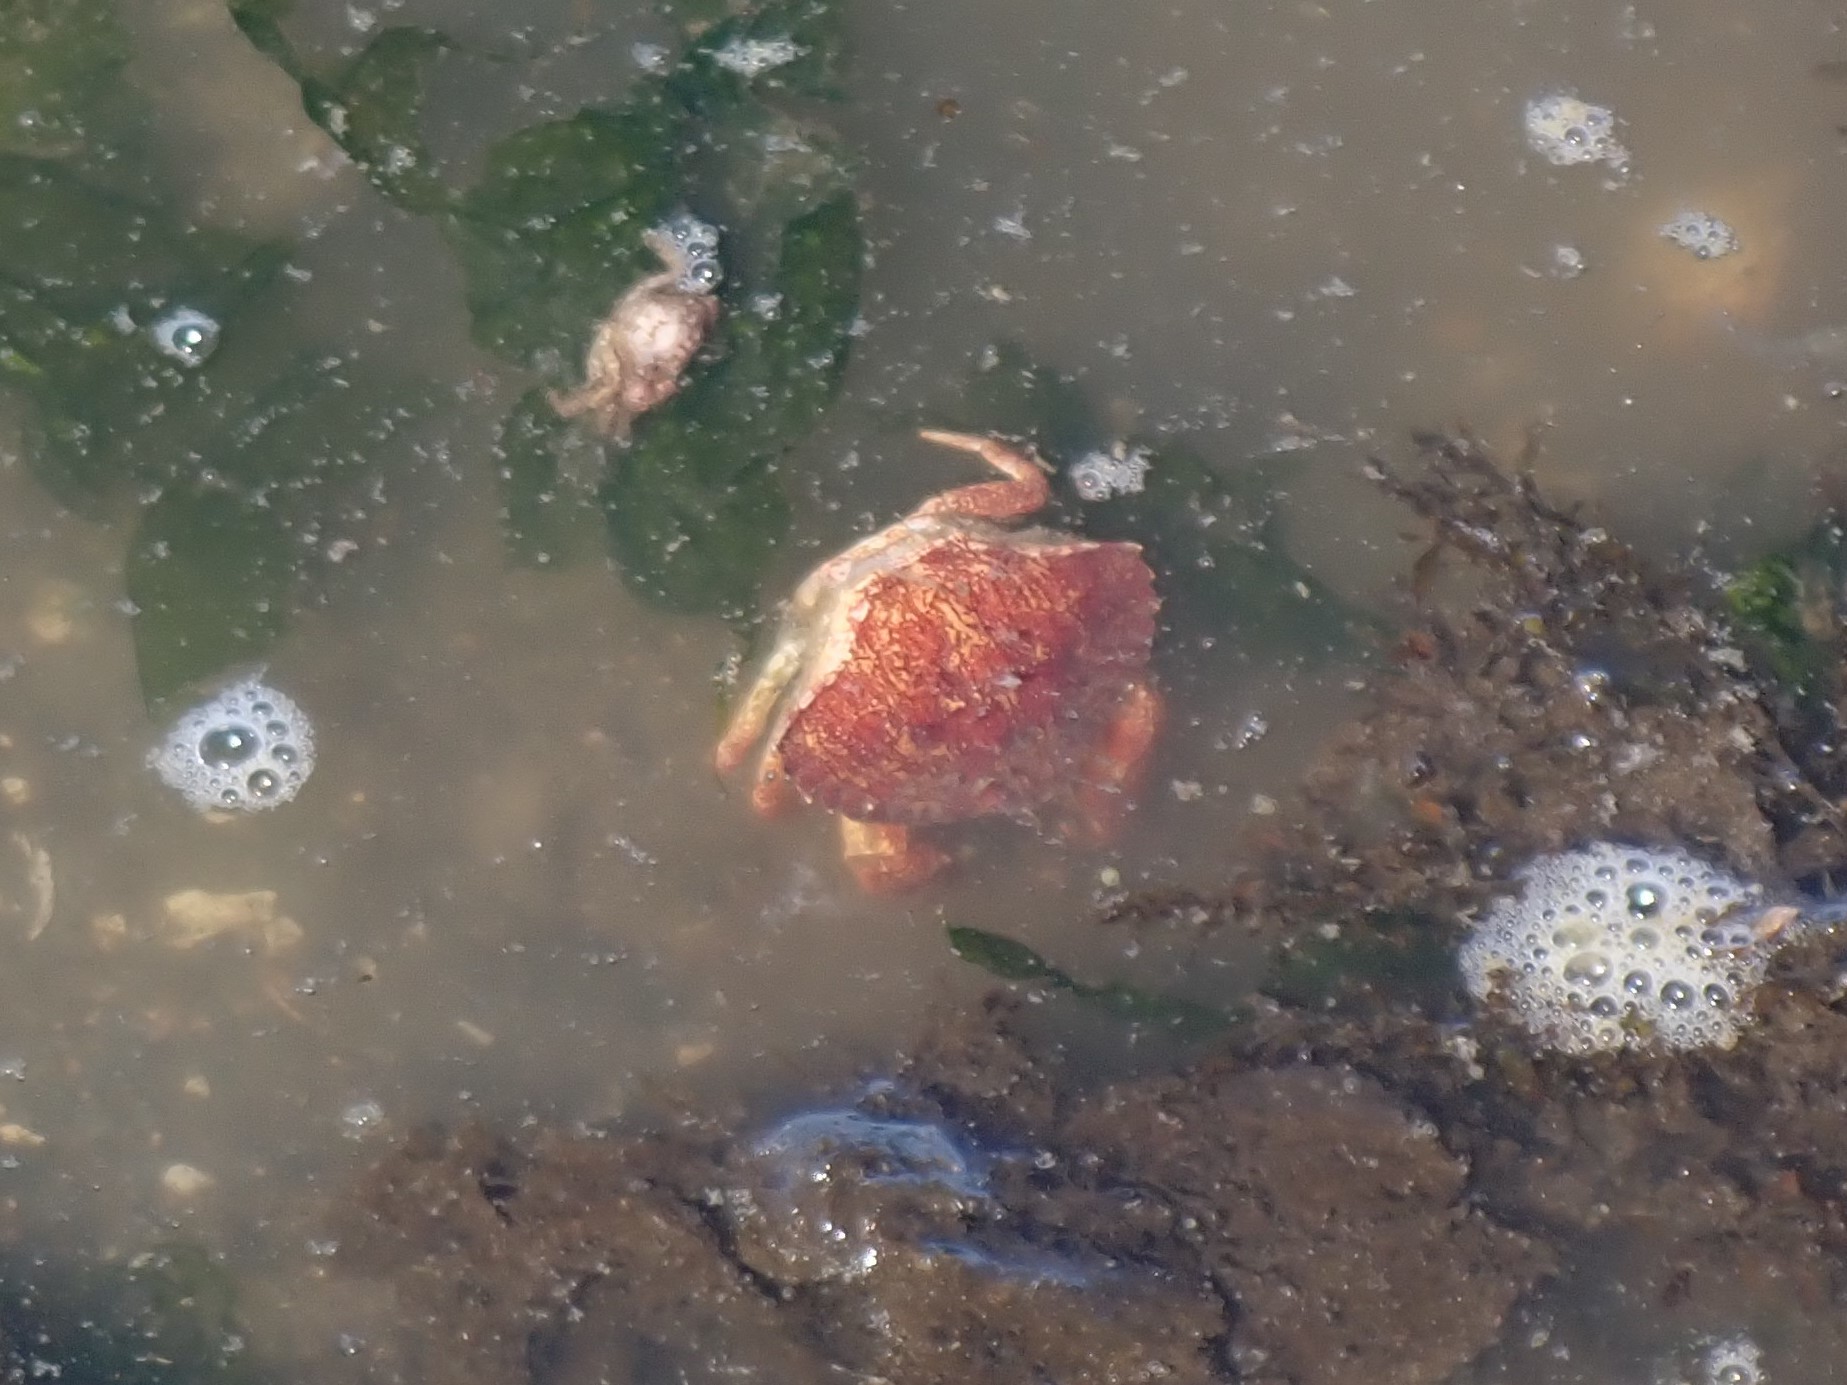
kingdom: Animalia
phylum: Arthropoda
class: Malacostraca
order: Decapoda
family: Cancridae
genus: Cancer
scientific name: Cancer productus
